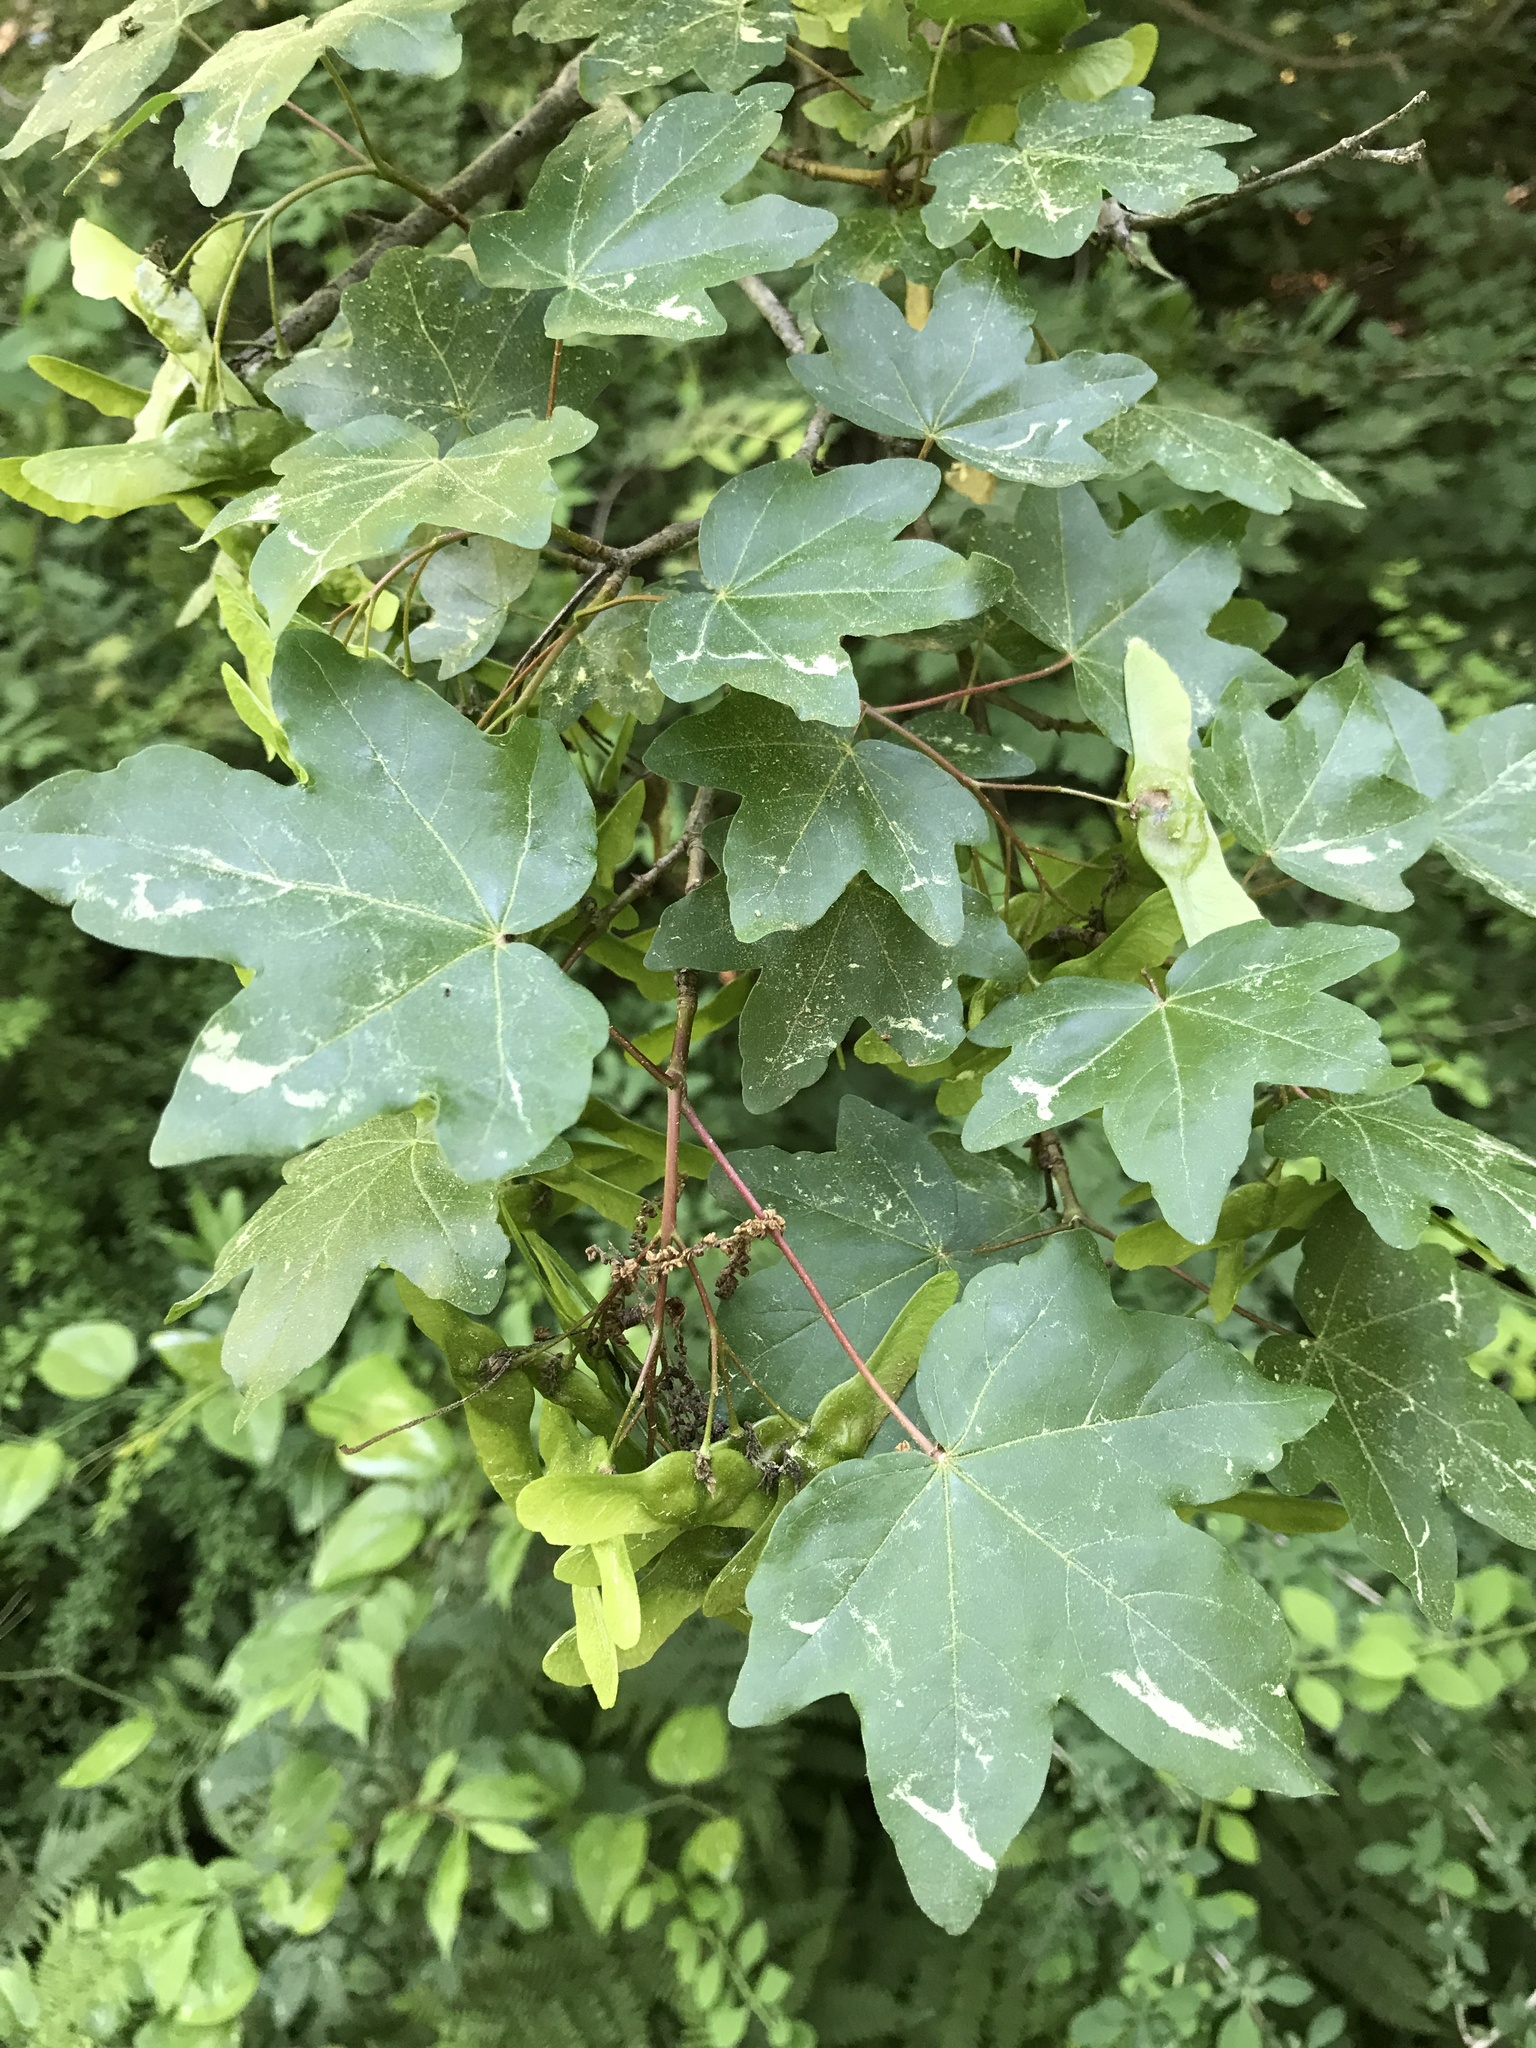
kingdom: Plantae
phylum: Tracheophyta
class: Magnoliopsida
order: Sapindales
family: Sapindaceae
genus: Acer
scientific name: Acer campestre
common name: Field maple
